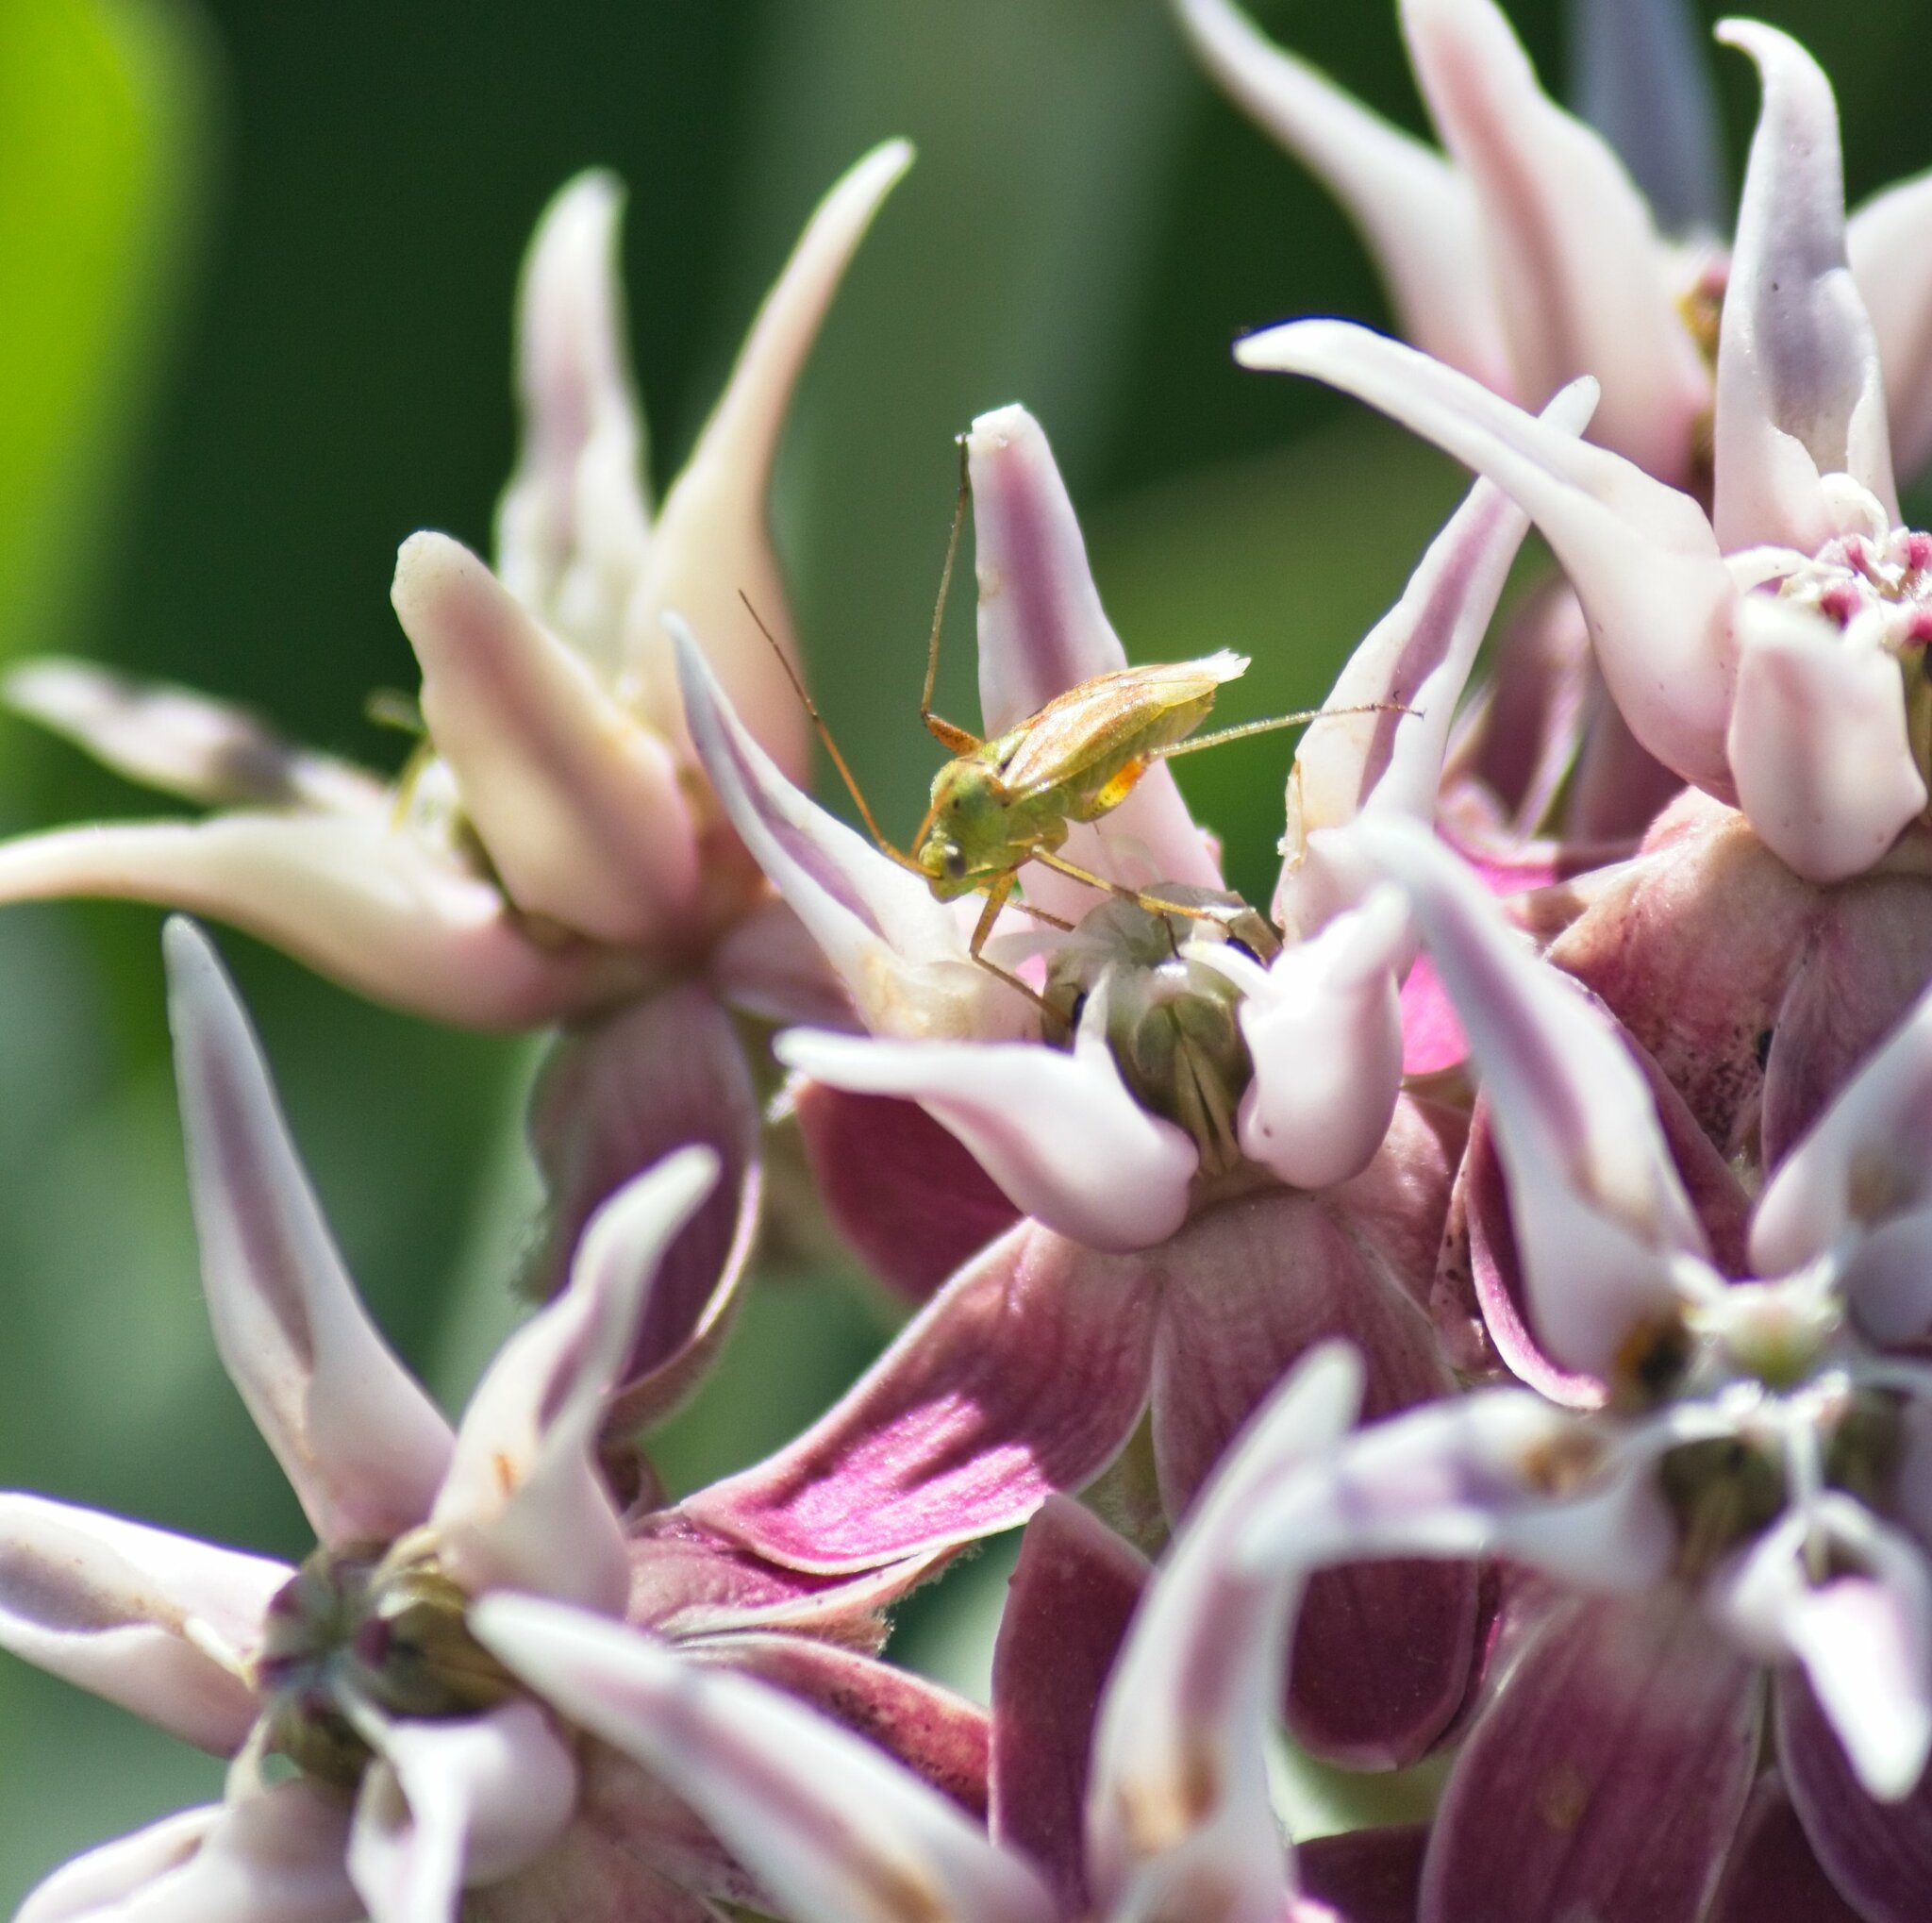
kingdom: Animalia
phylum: Arthropoda
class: Insecta
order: Hemiptera
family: Miridae
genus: Closterotomus
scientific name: Closterotomus norvegicus
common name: Plant bug
